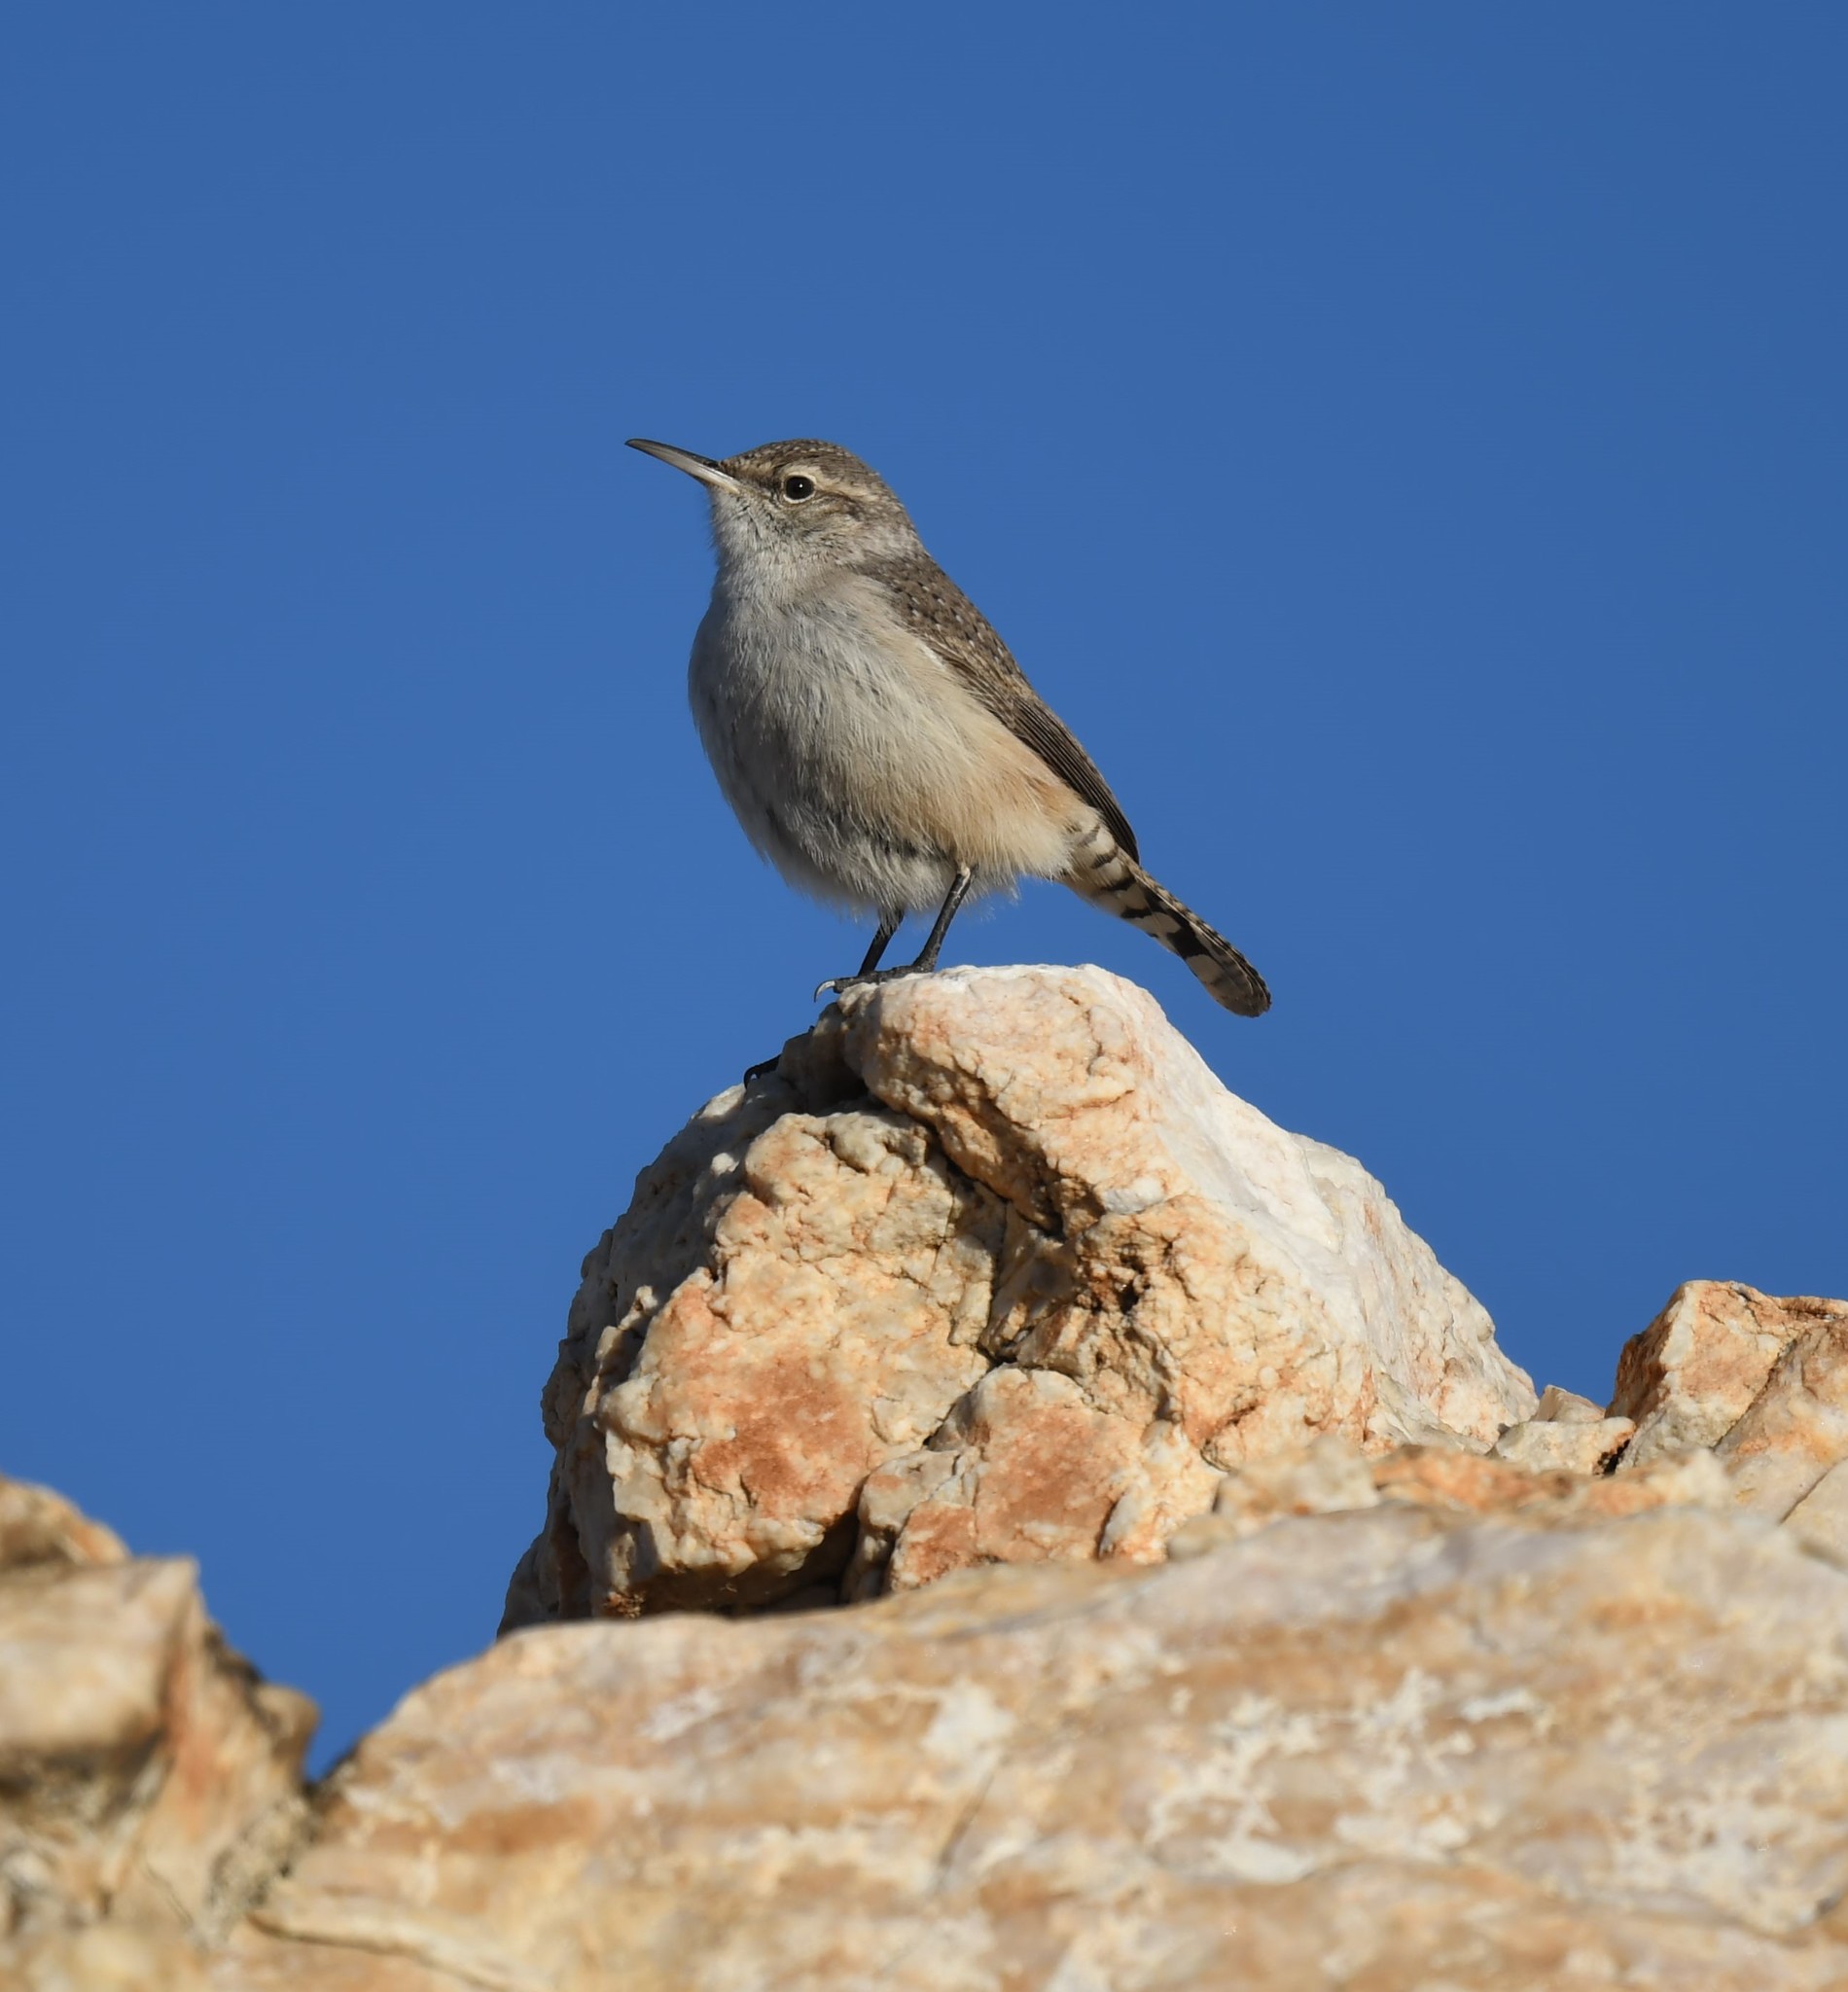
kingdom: Animalia
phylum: Chordata
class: Aves
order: Passeriformes
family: Troglodytidae
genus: Salpinctes
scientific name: Salpinctes obsoletus
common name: Rock wren
